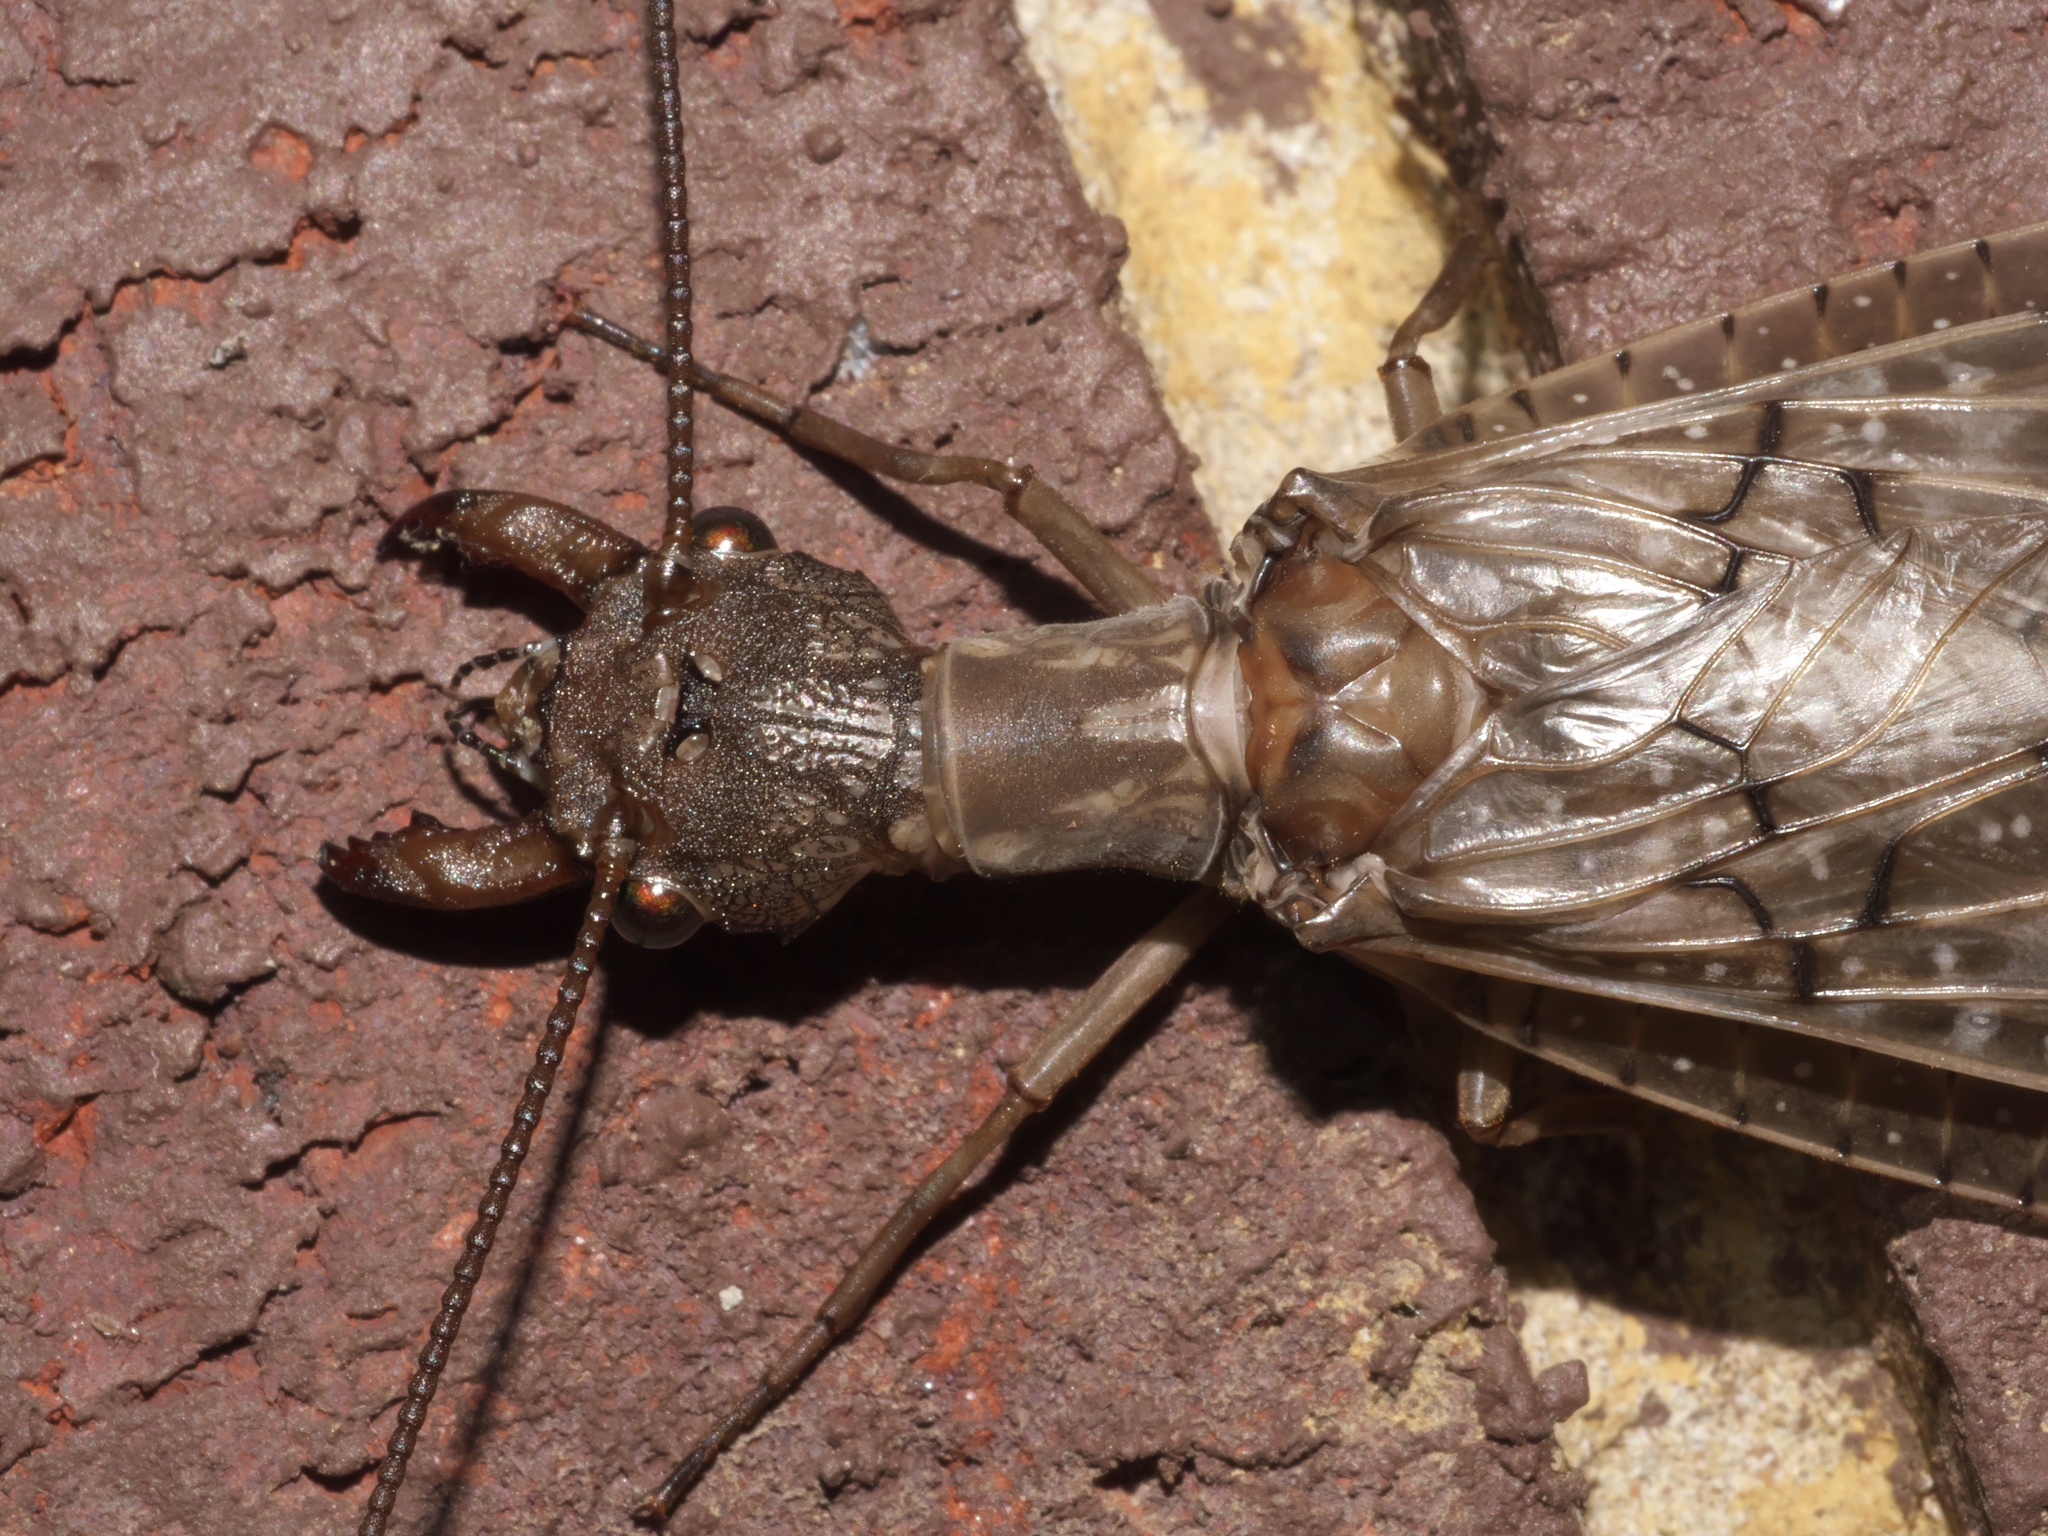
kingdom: Animalia
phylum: Arthropoda
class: Insecta
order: Megaloptera
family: Corydalidae
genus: Corydalus
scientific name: Corydalus cornutus
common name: Dobsonfly
